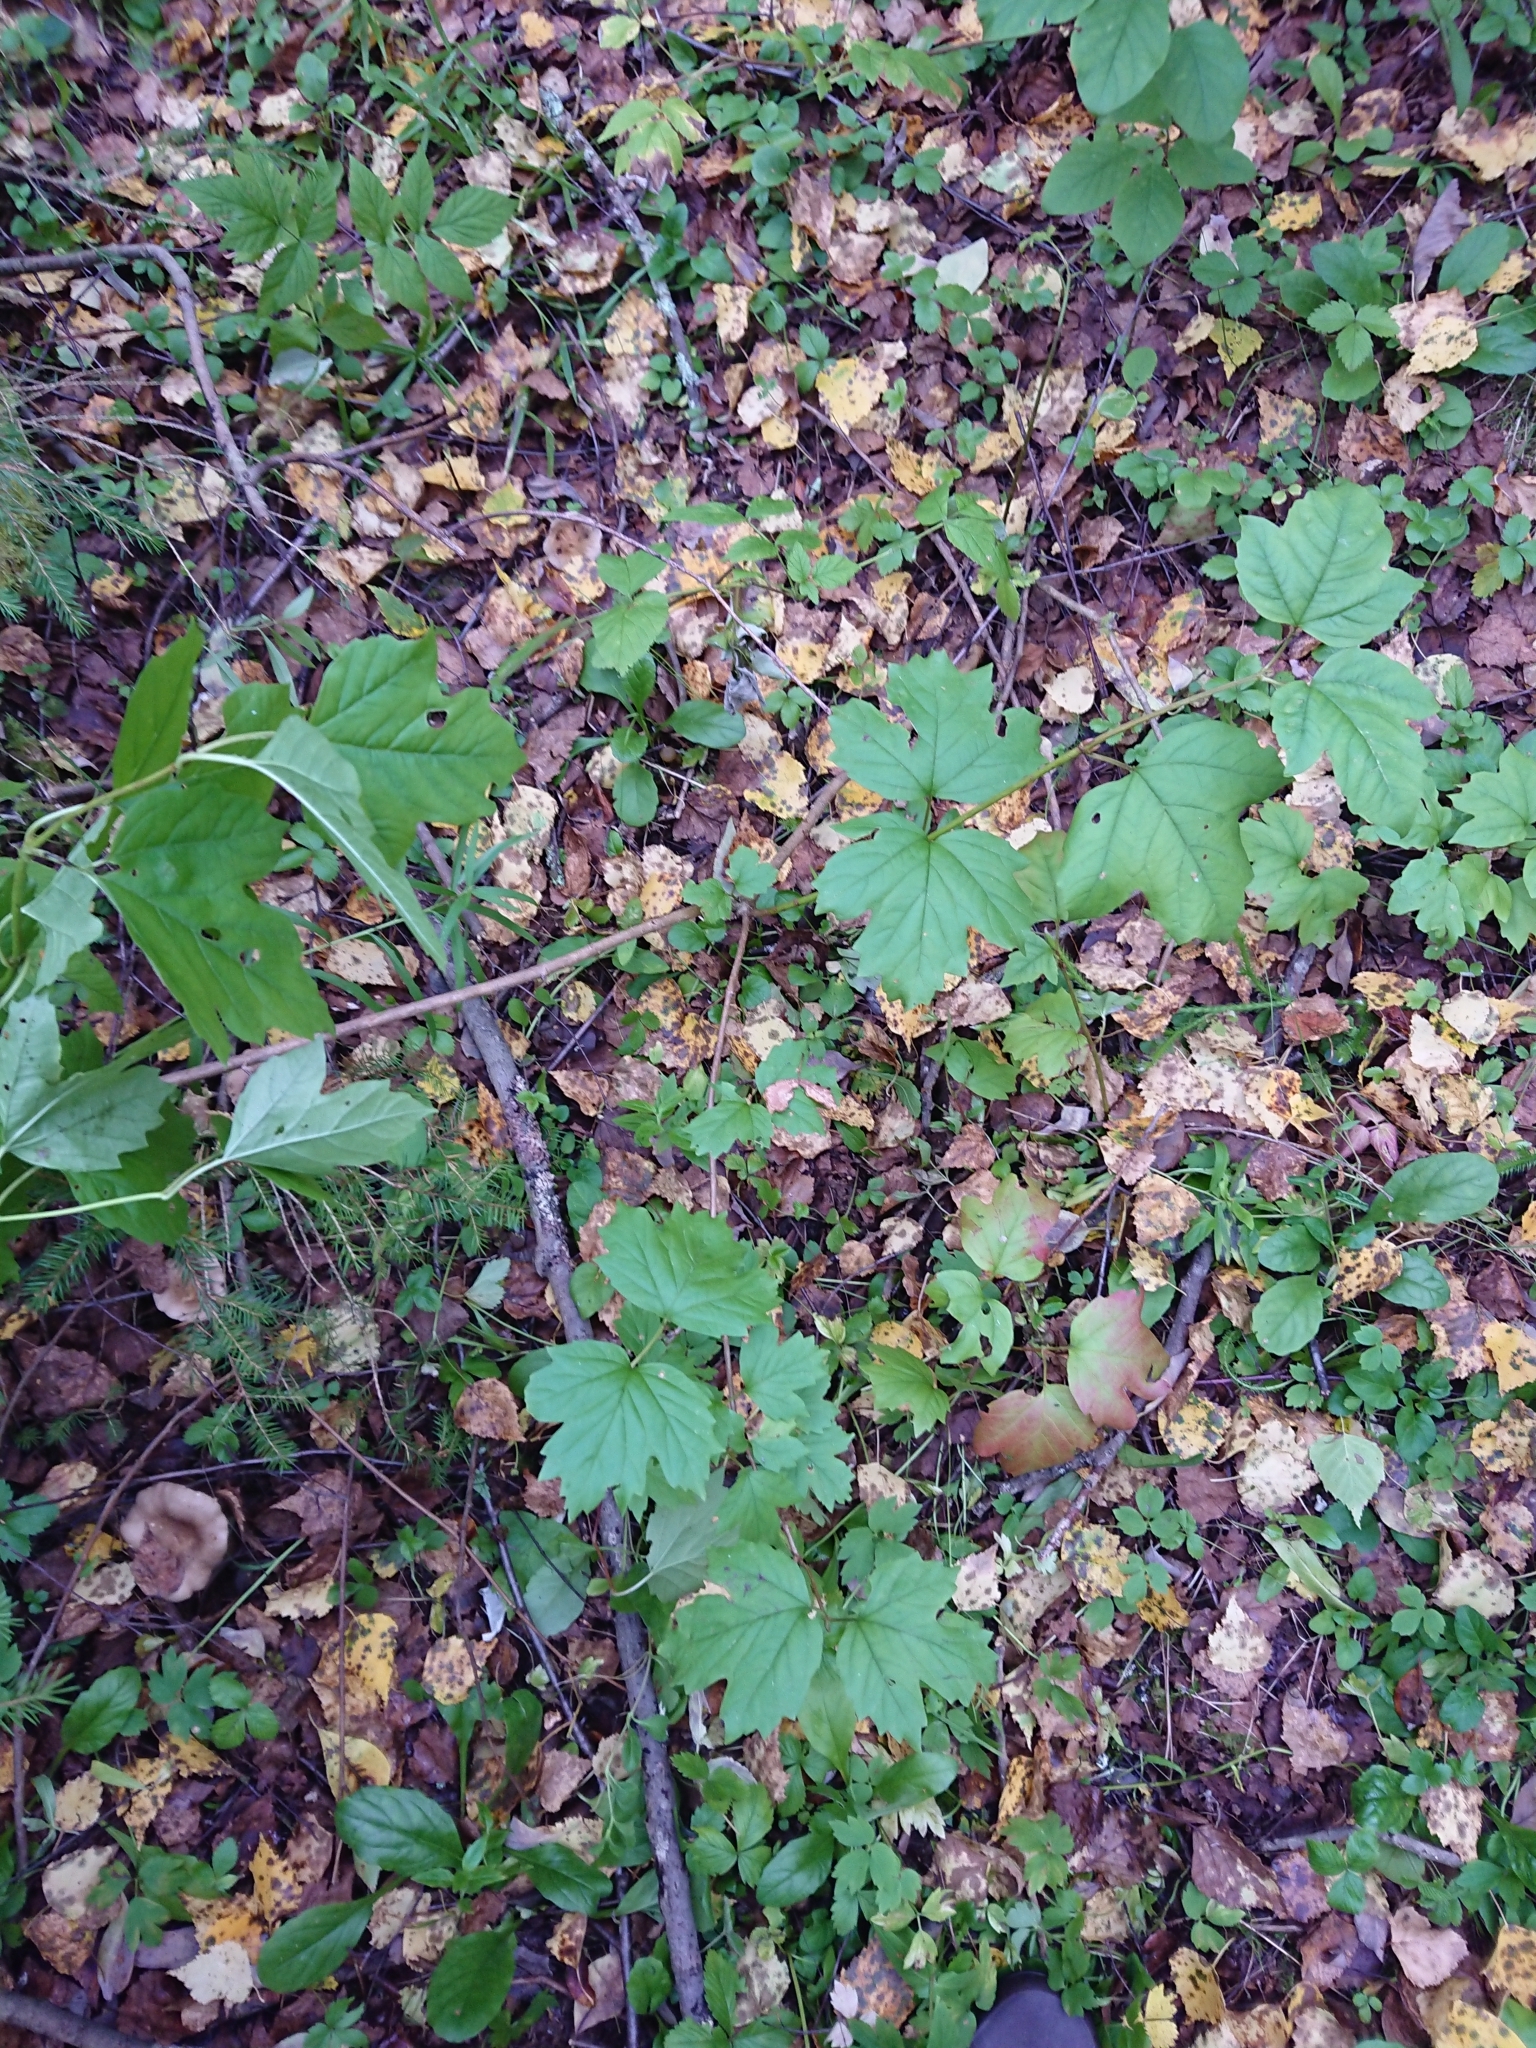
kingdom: Plantae
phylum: Tracheophyta
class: Magnoliopsida
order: Dipsacales
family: Viburnaceae
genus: Viburnum
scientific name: Viburnum opulus
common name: Guelder-rose
